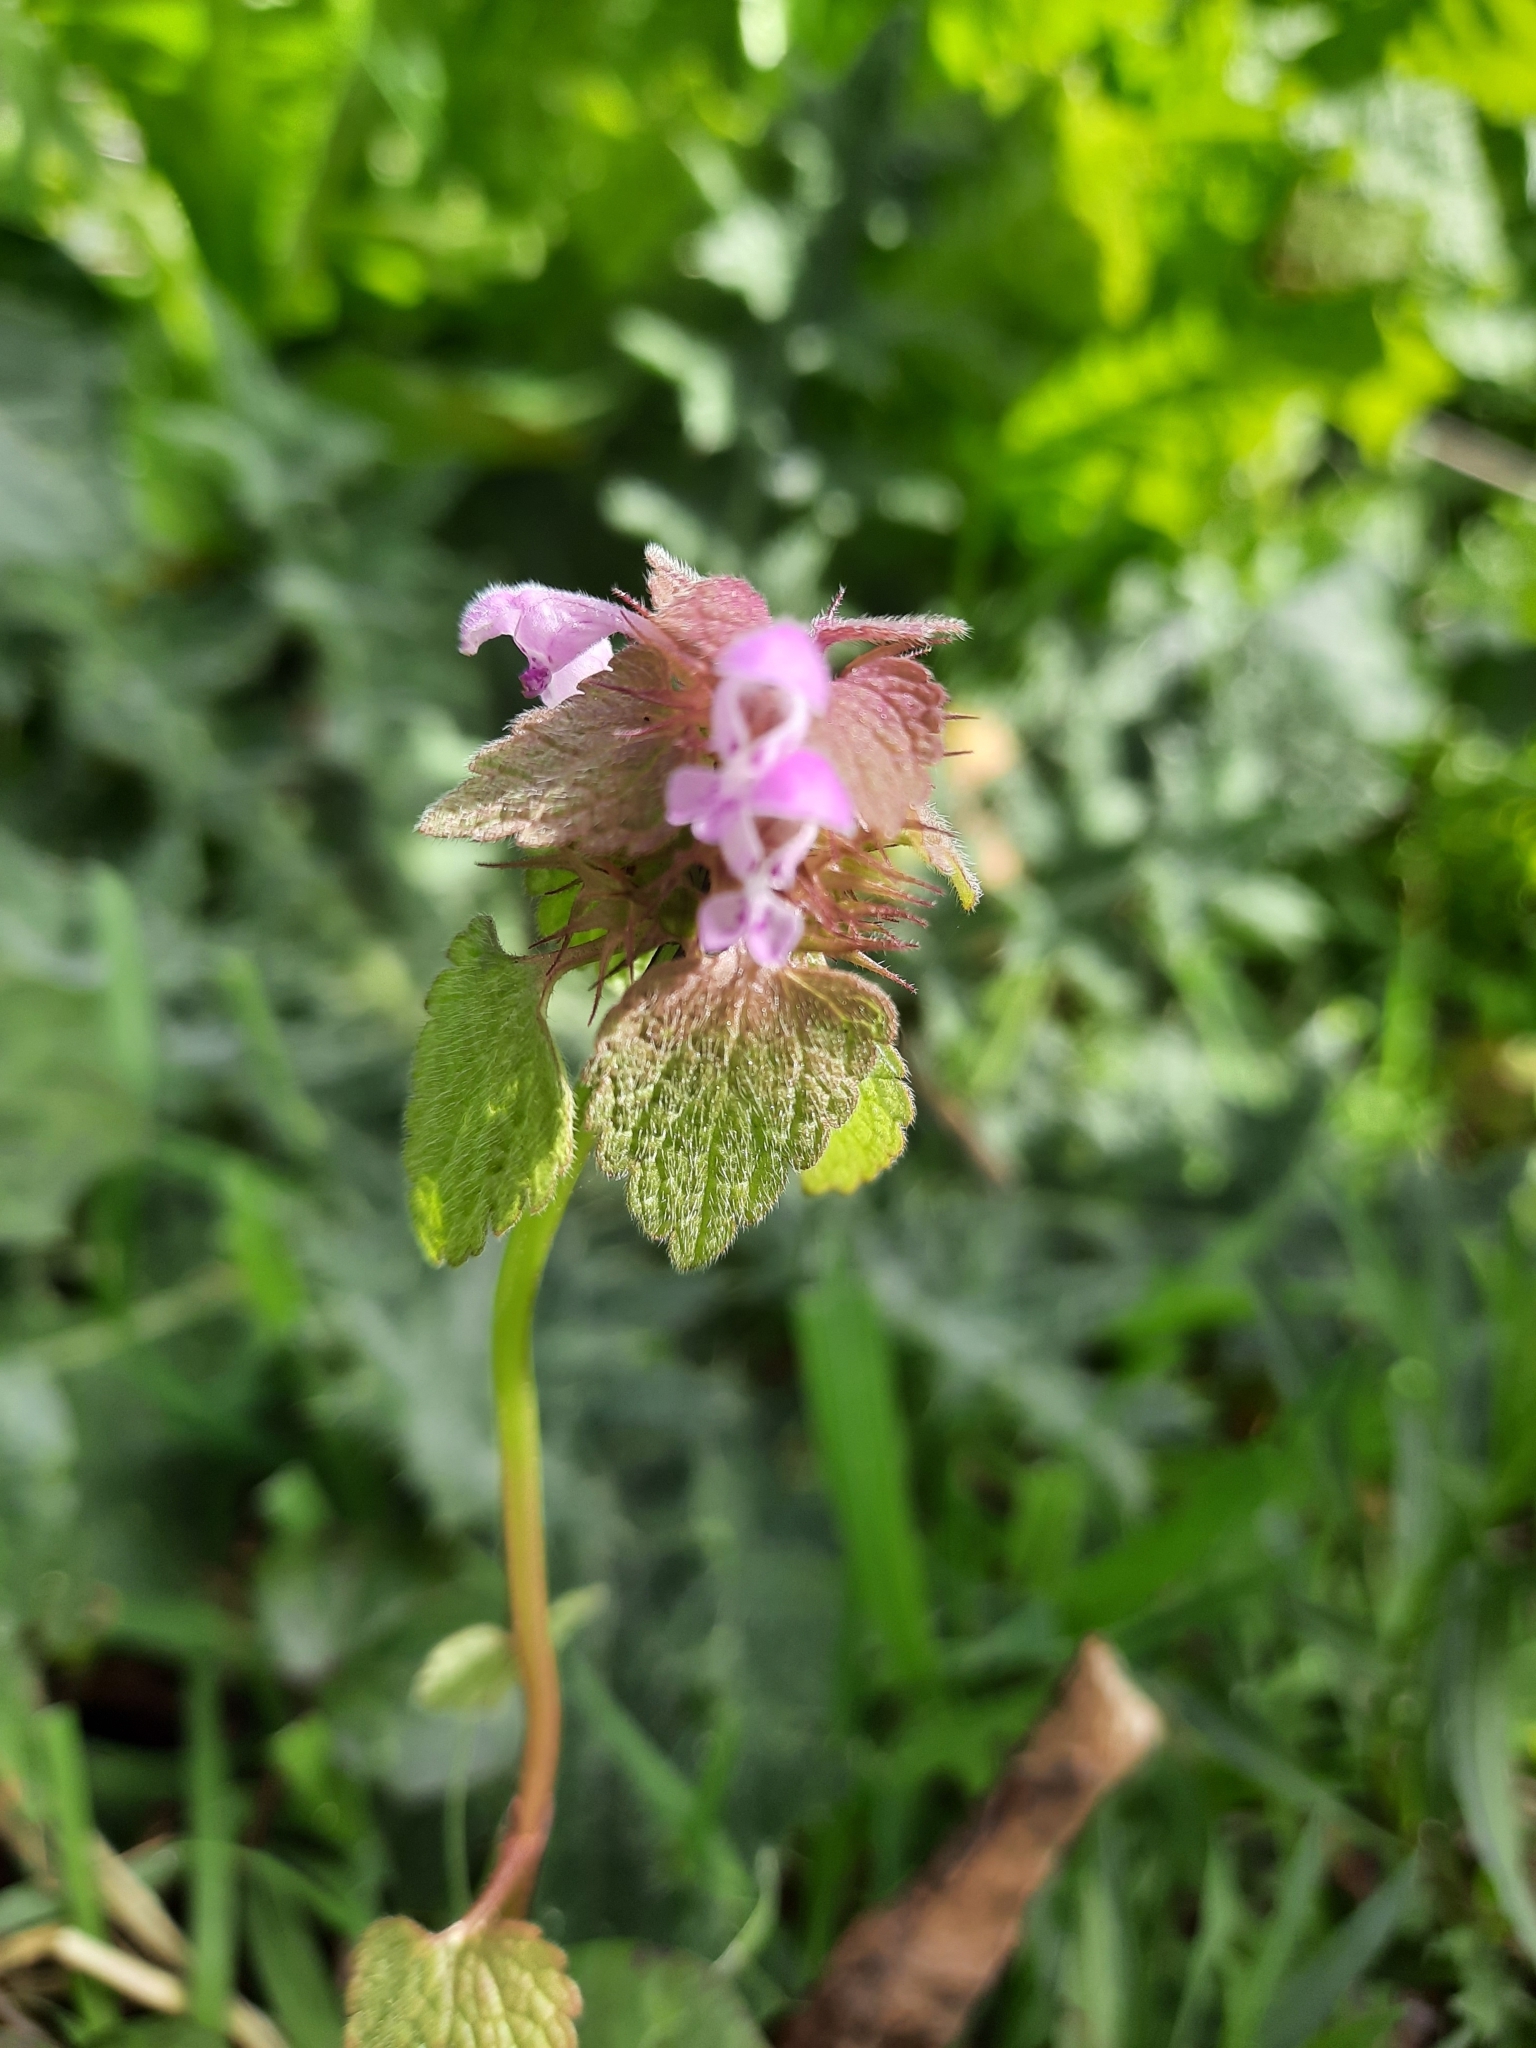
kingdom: Plantae
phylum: Tracheophyta
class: Magnoliopsida
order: Lamiales
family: Lamiaceae
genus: Lamium
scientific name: Lamium purpureum
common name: Red dead-nettle
